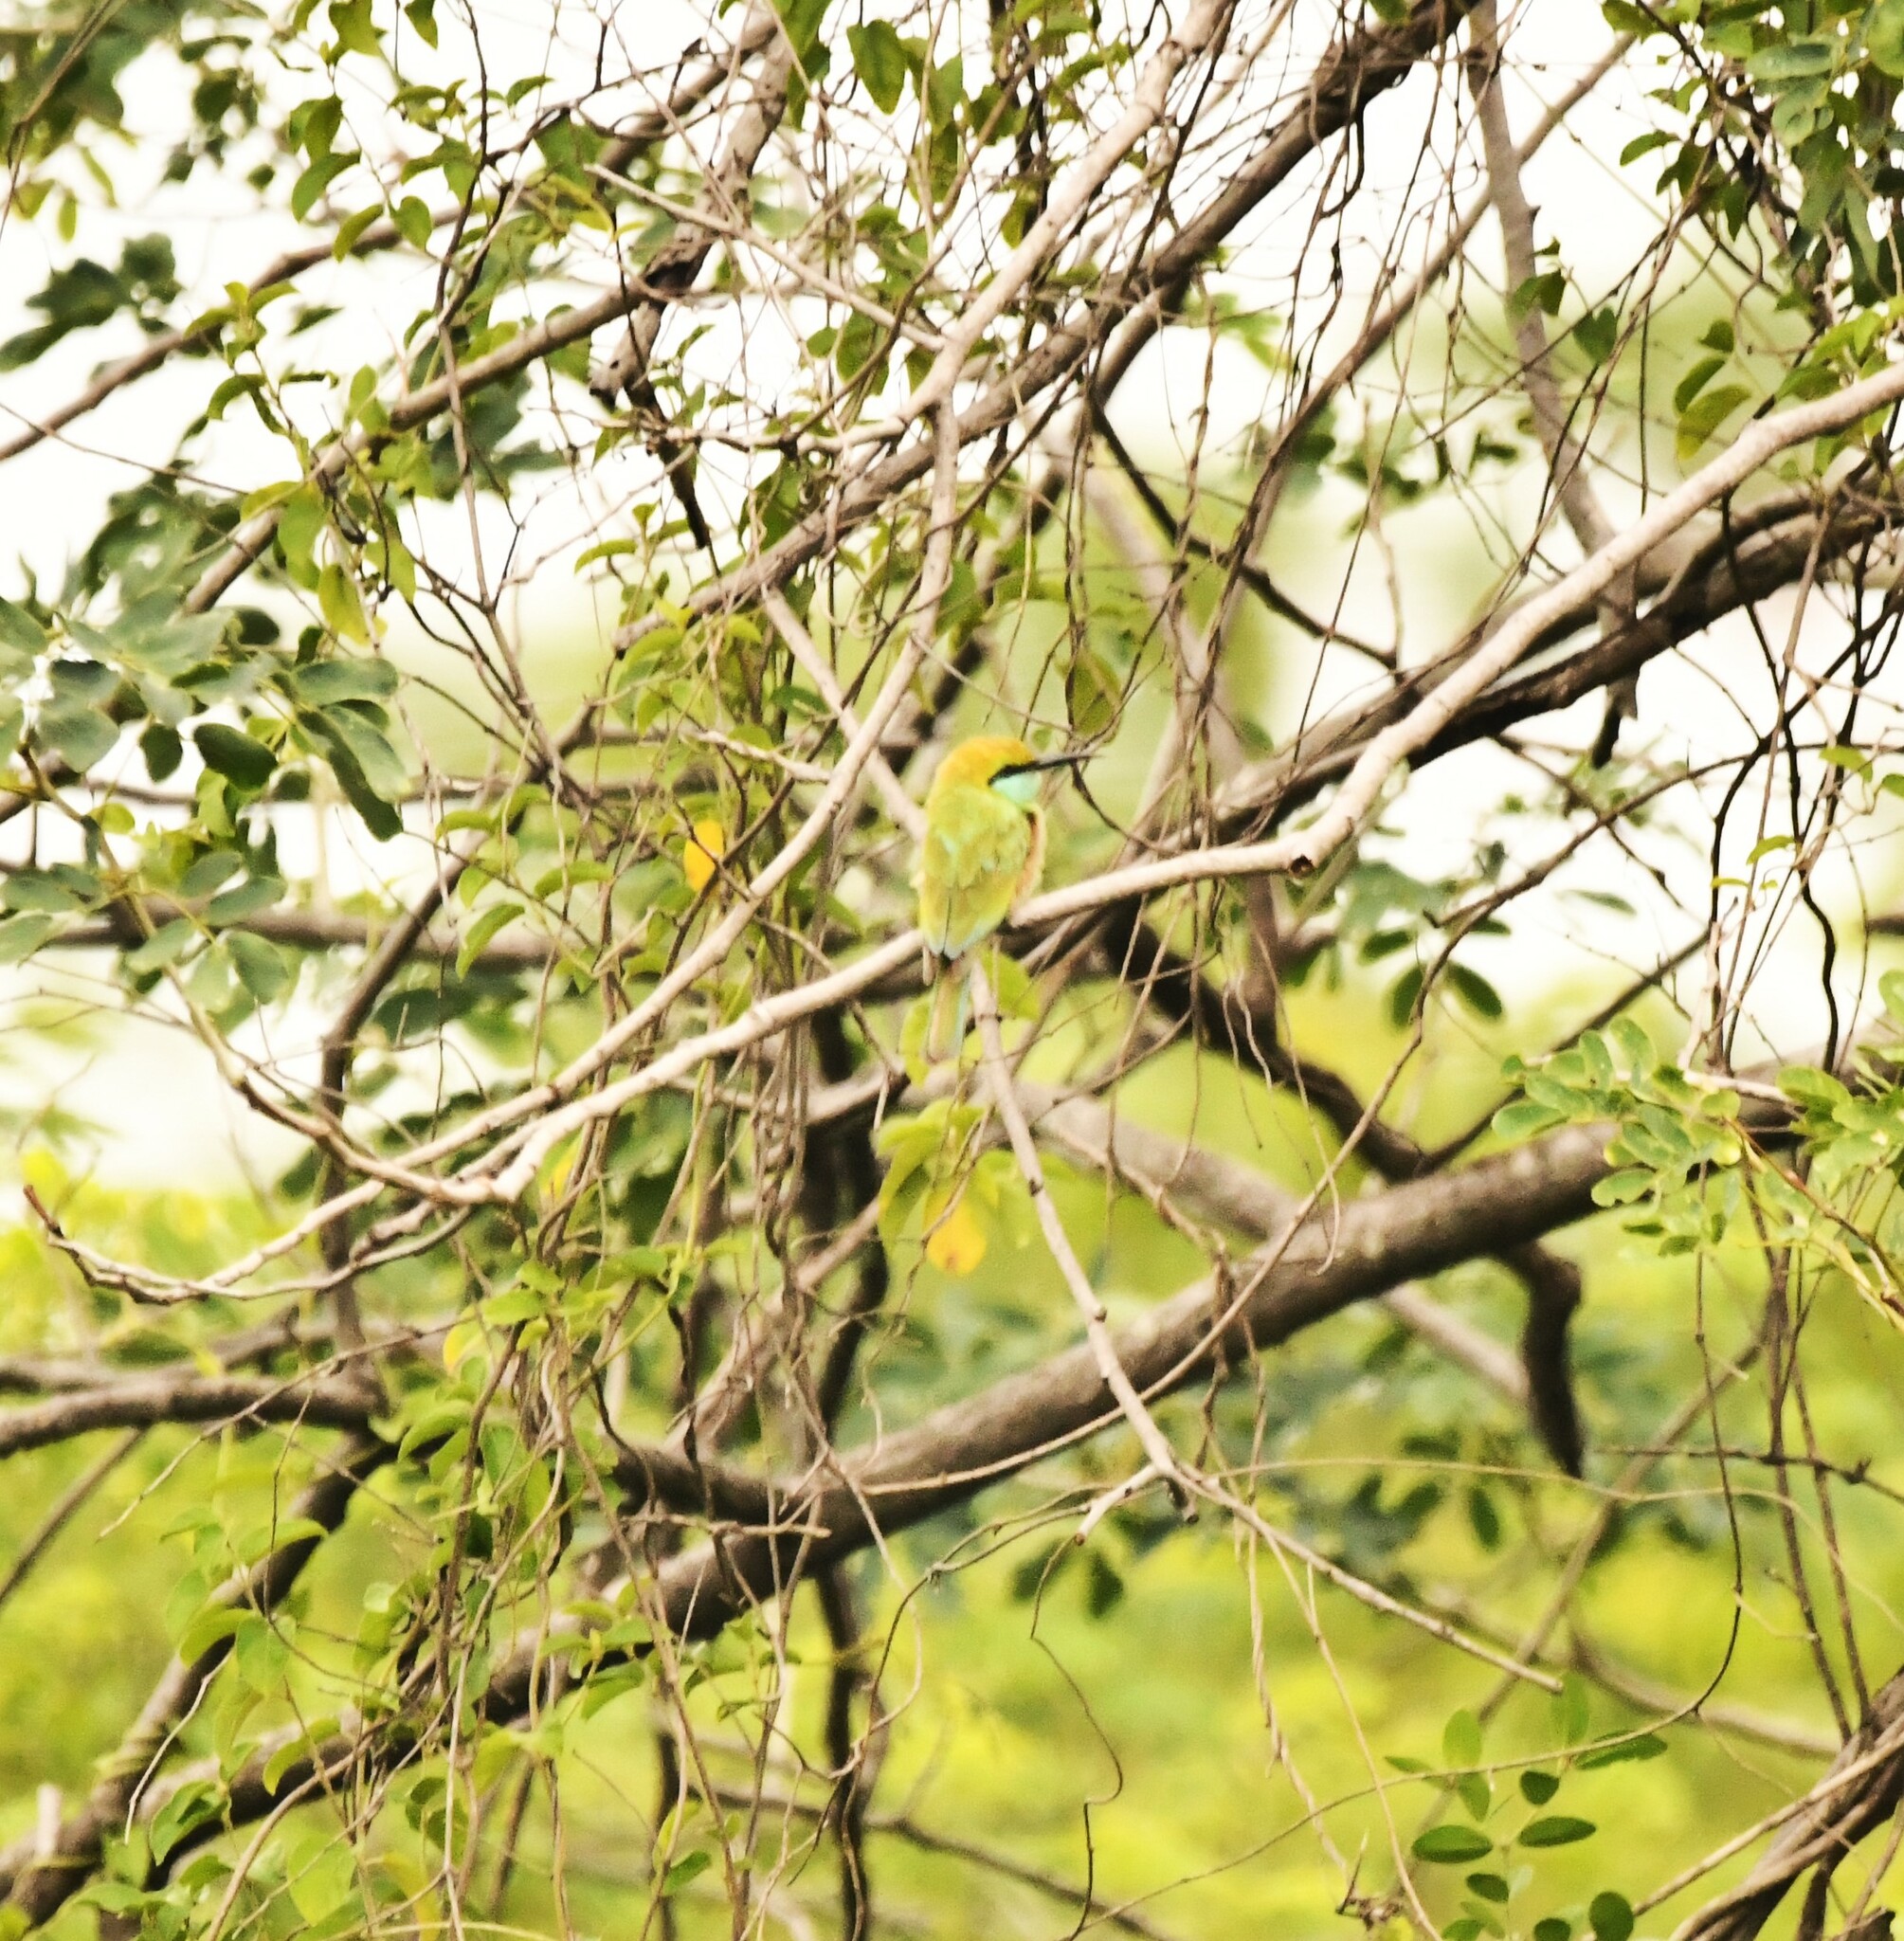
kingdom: Animalia
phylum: Chordata
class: Aves
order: Coraciiformes
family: Meropidae
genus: Merops
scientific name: Merops orientalis
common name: Green bee-eater
